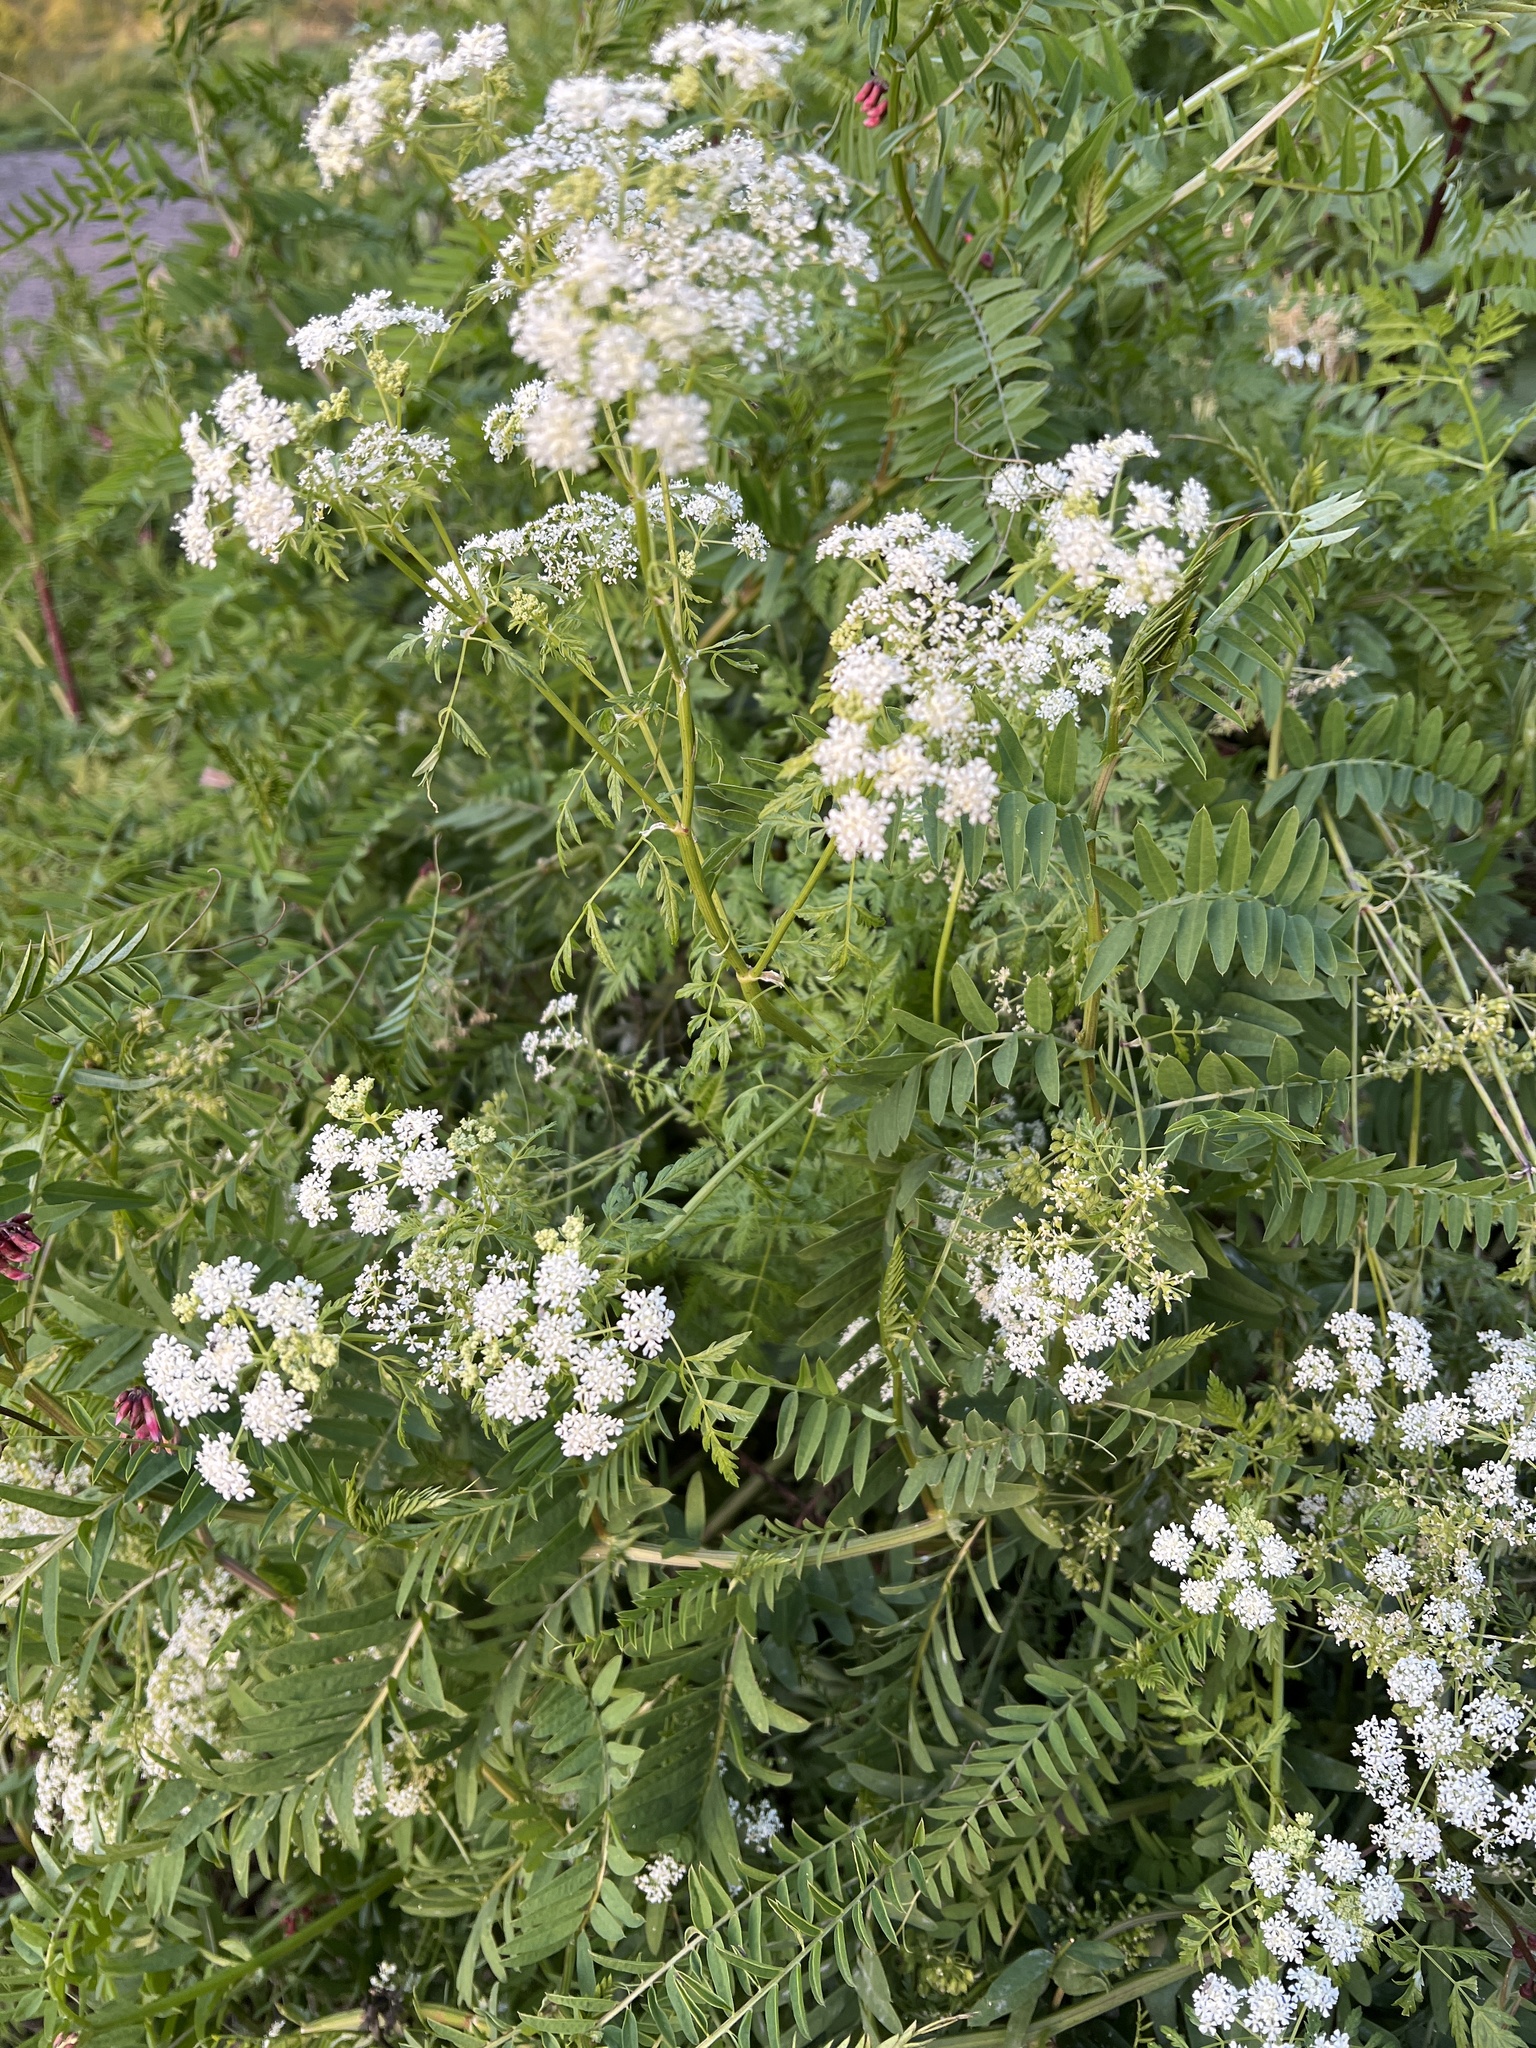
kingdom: Plantae
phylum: Tracheophyta
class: Magnoliopsida
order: Apiales
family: Apiaceae
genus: Conium
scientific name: Conium maculatum
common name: Hemlock
